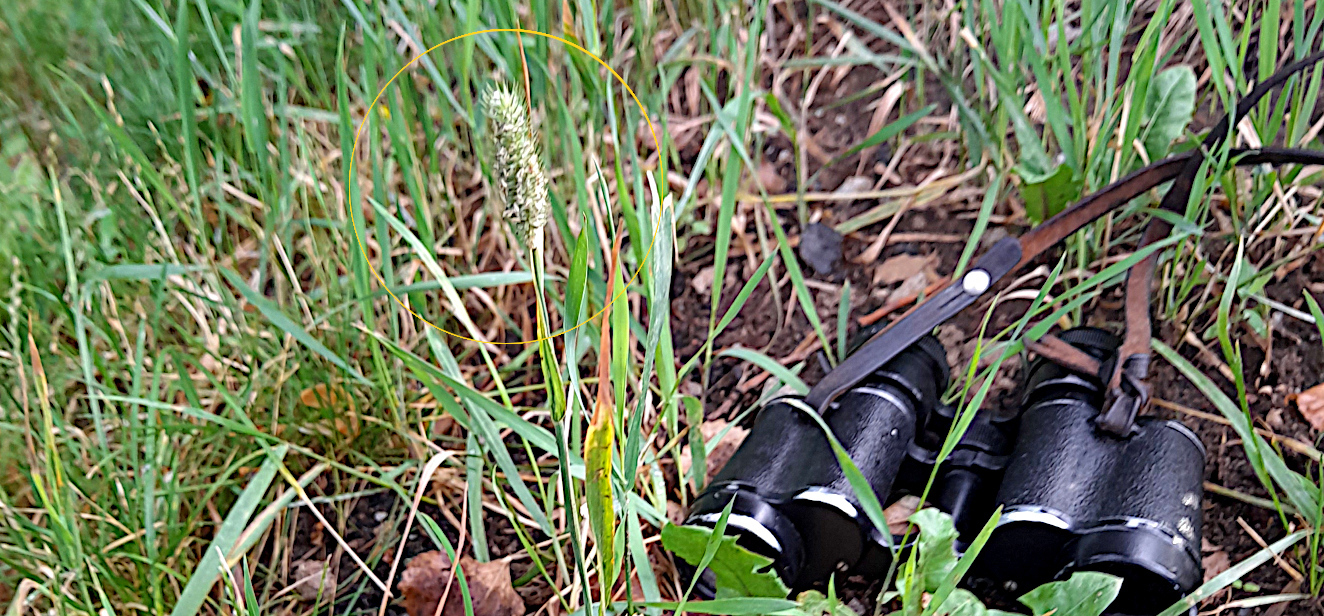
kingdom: Plantae
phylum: Tracheophyta
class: Liliopsida
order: Poales
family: Poaceae
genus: Phleum
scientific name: Phleum pratense
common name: Timothy grass
